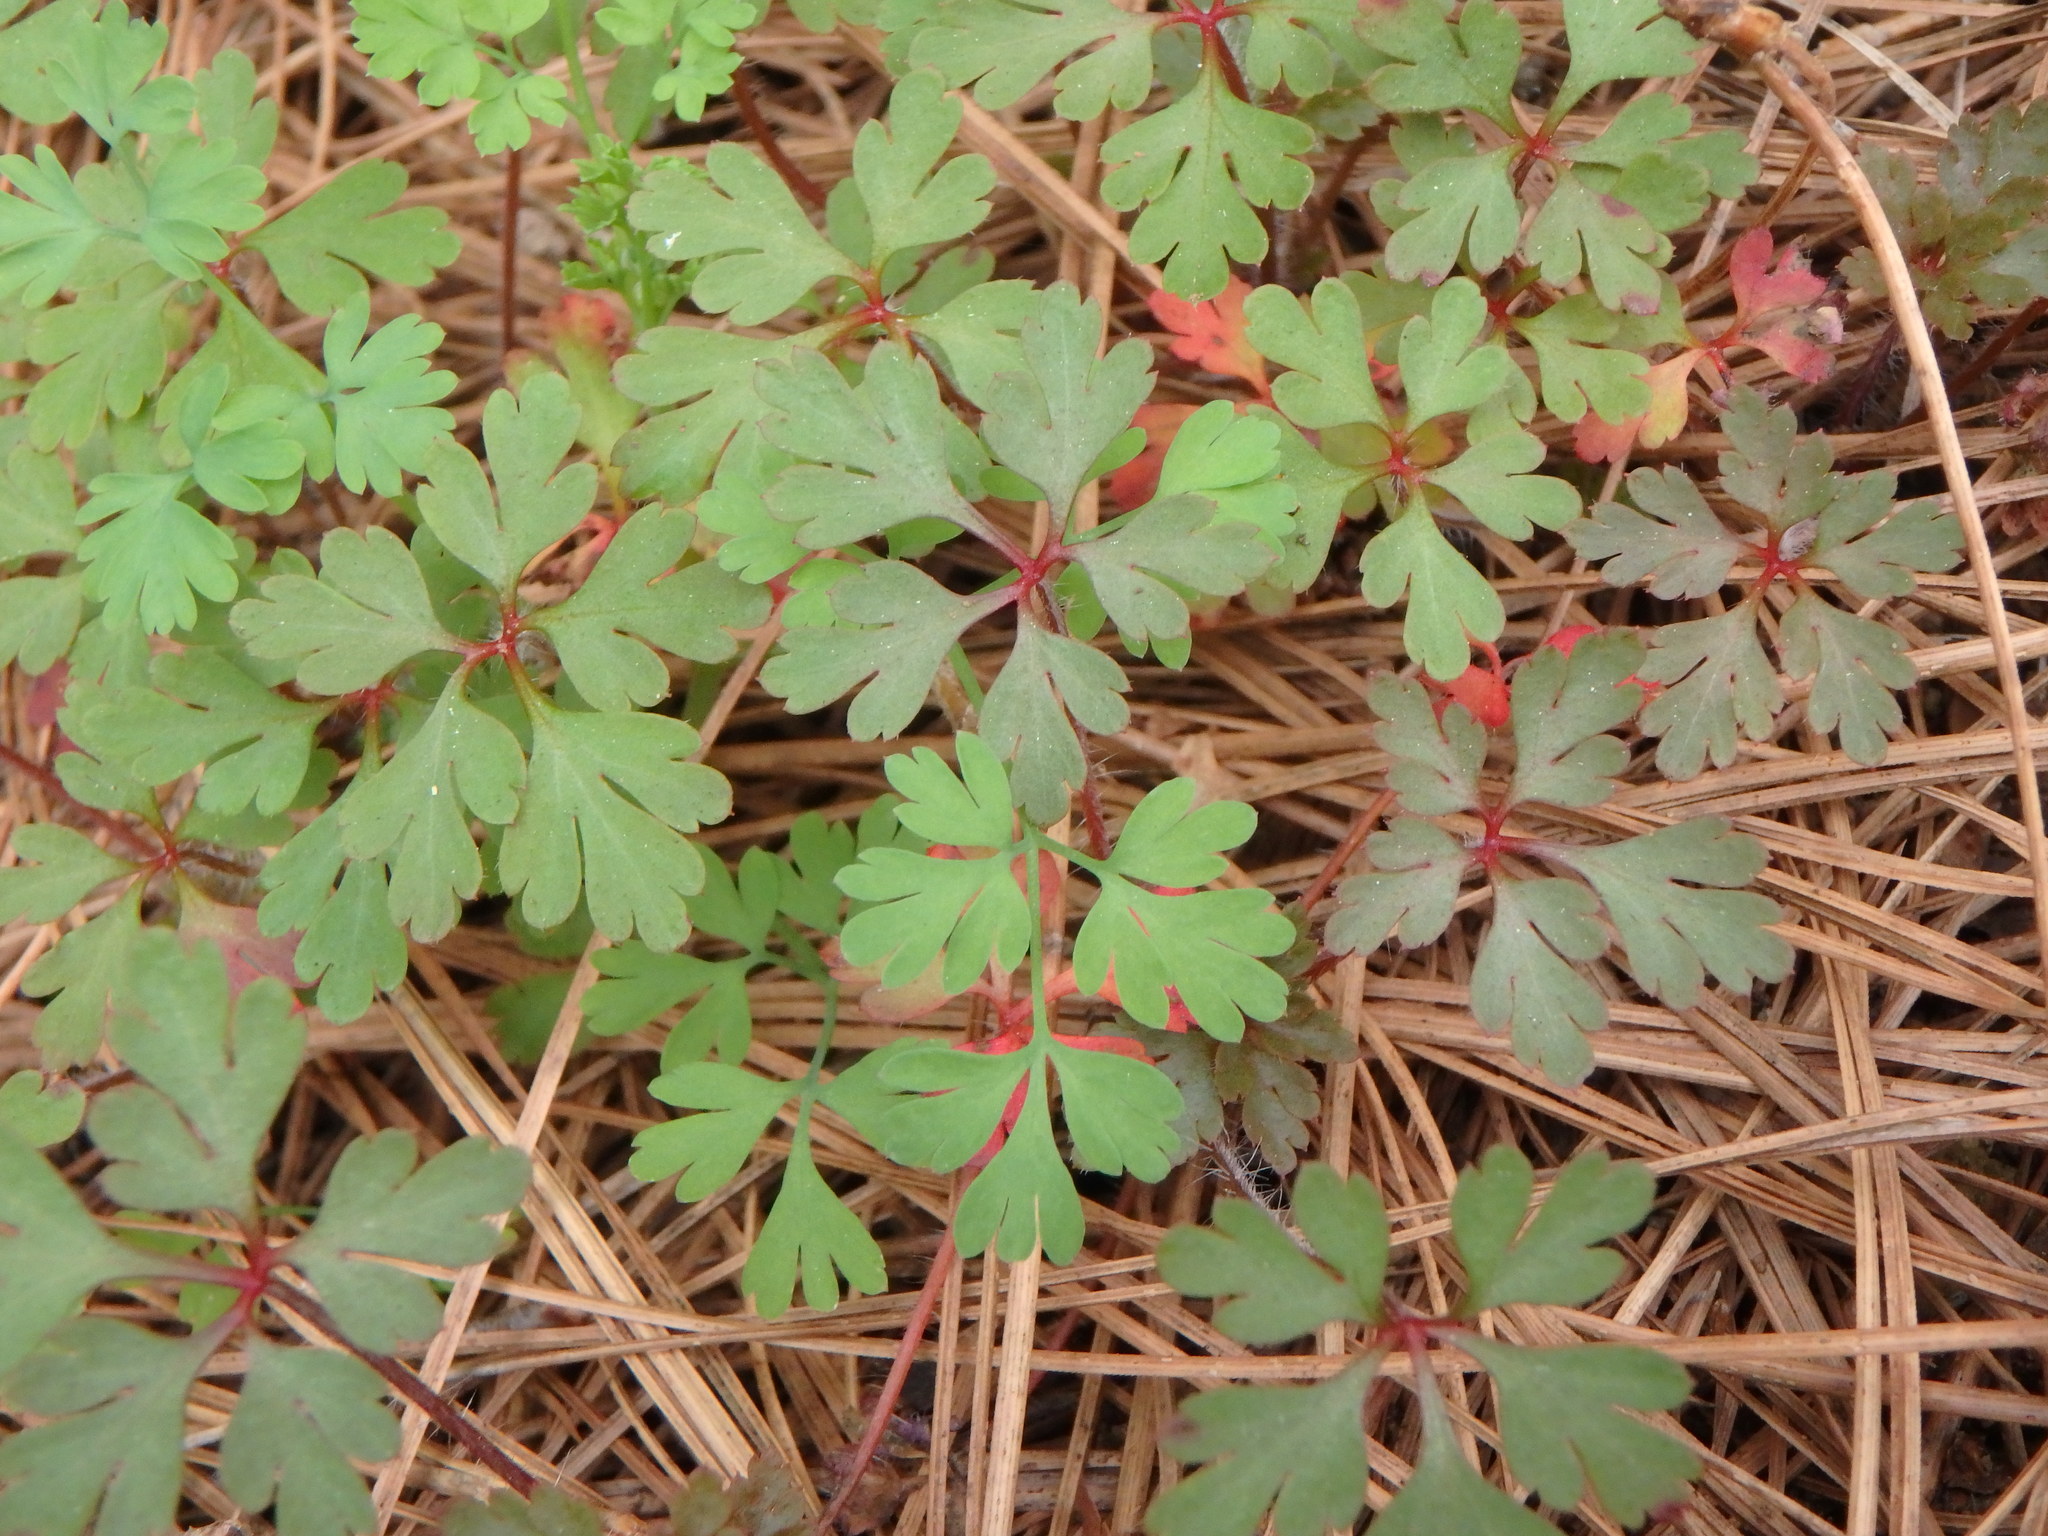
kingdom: Plantae
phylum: Tracheophyta
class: Magnoliopsida
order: Geraniales
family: Geraniaceae
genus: Geranium
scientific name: Geranium purpureum
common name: Little-robin
